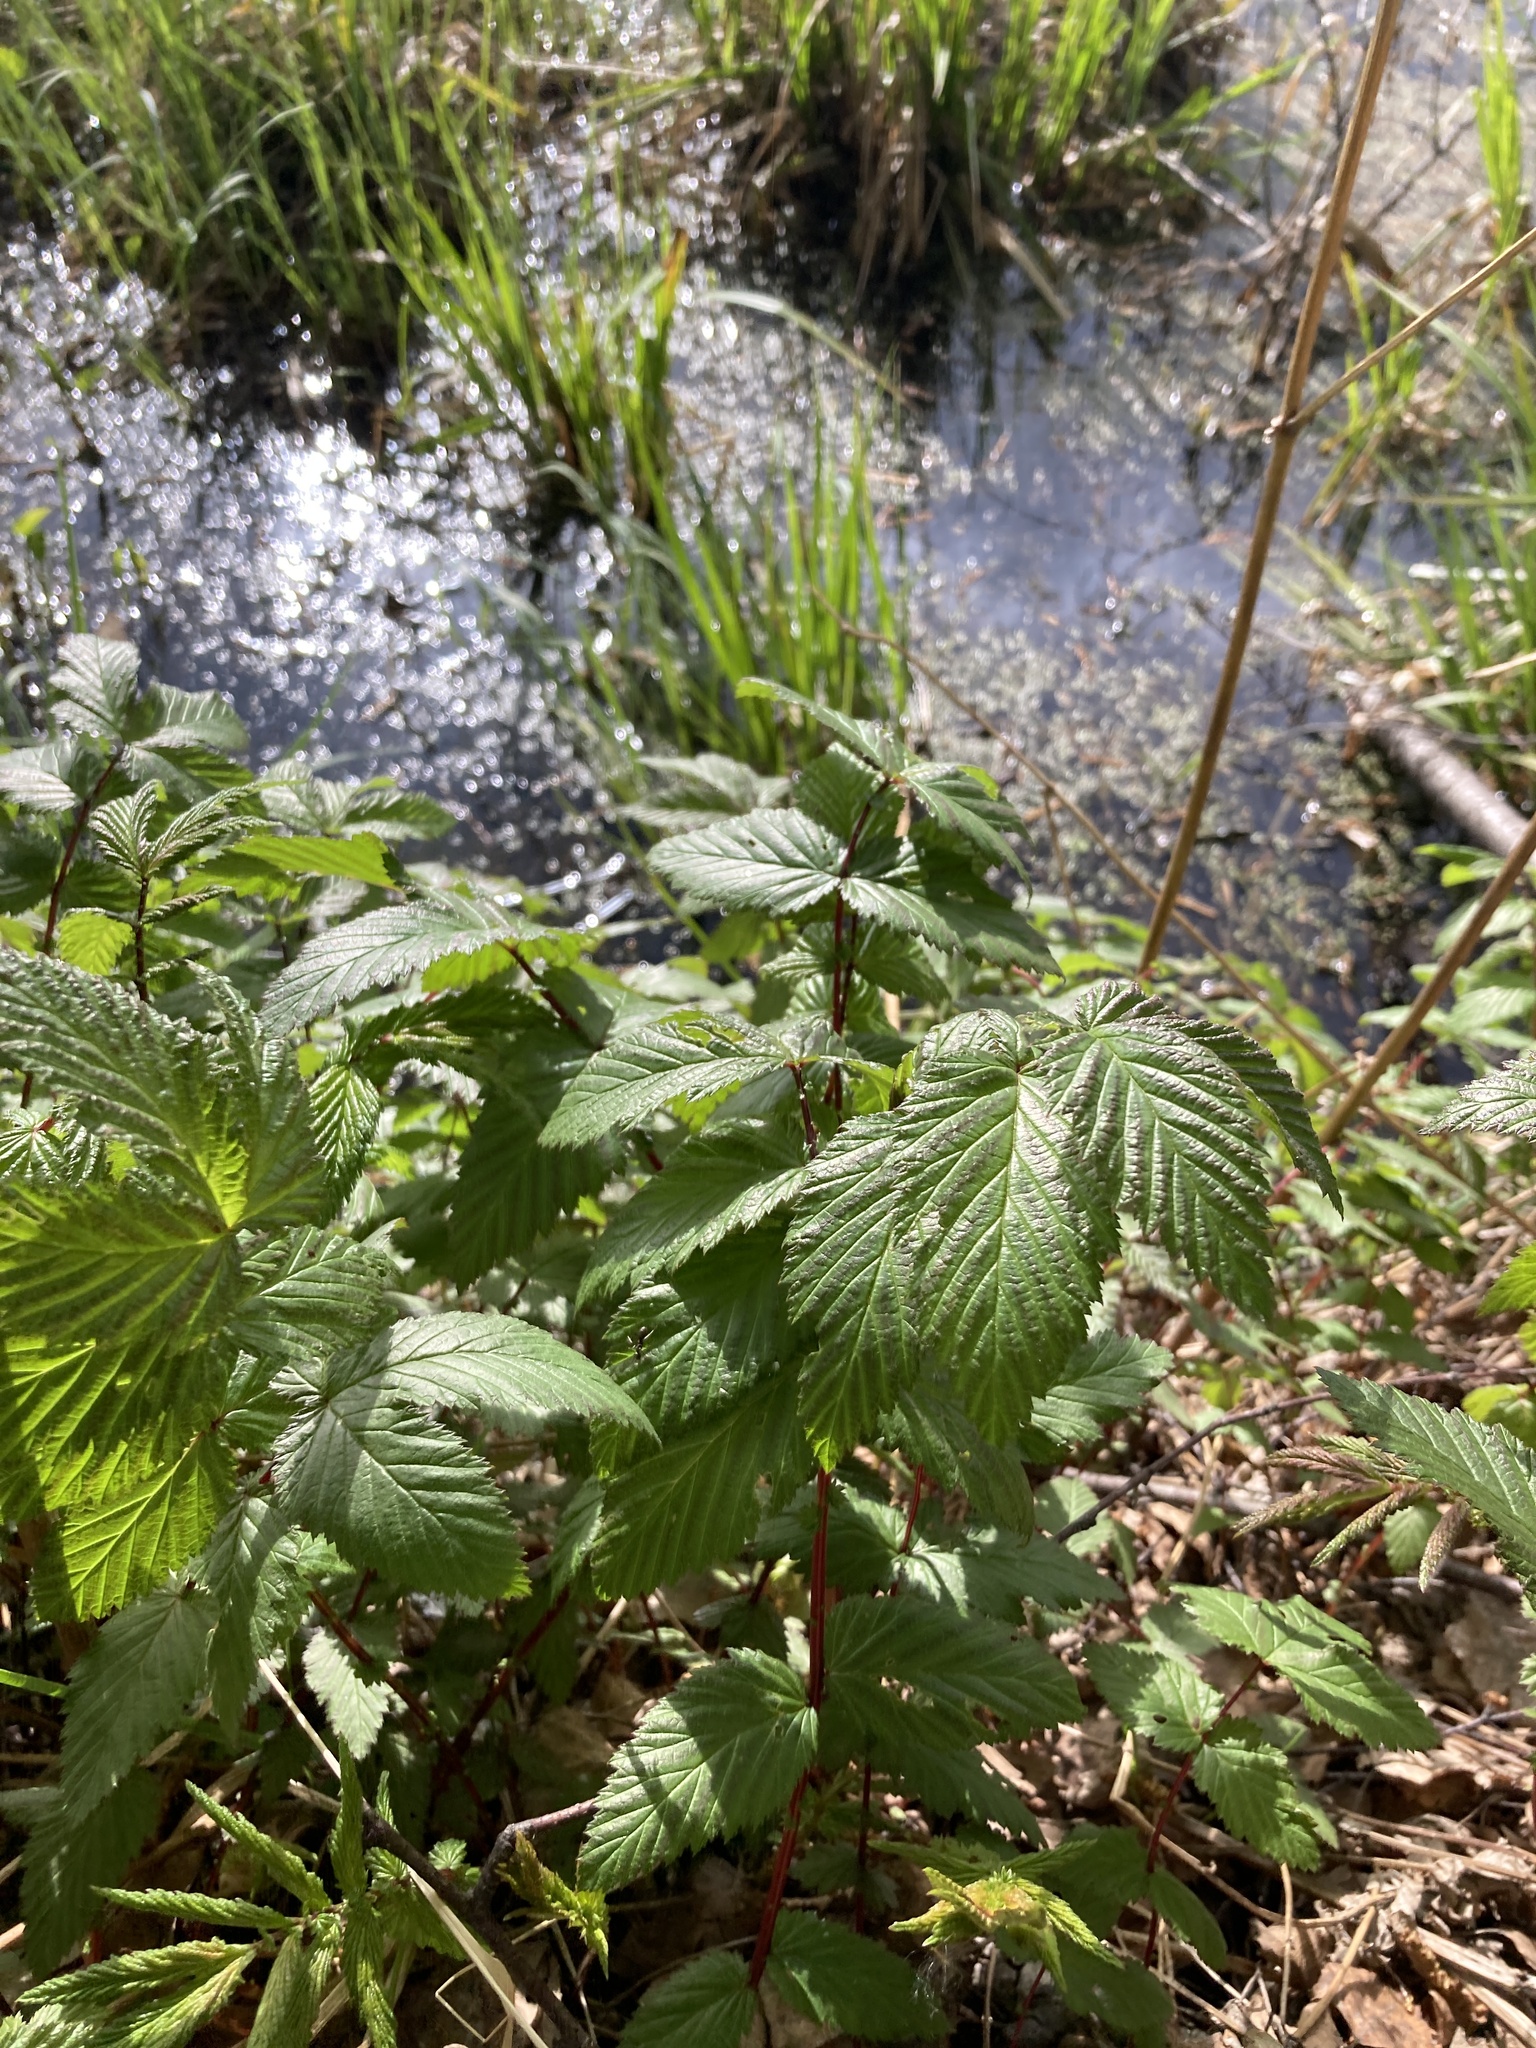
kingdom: Plantae
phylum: Tracheophyta
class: Magnoliopsida
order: Rosales
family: Rosaceae
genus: Filipendula
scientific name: Filipendula ulmaria
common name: Meadowsweet
